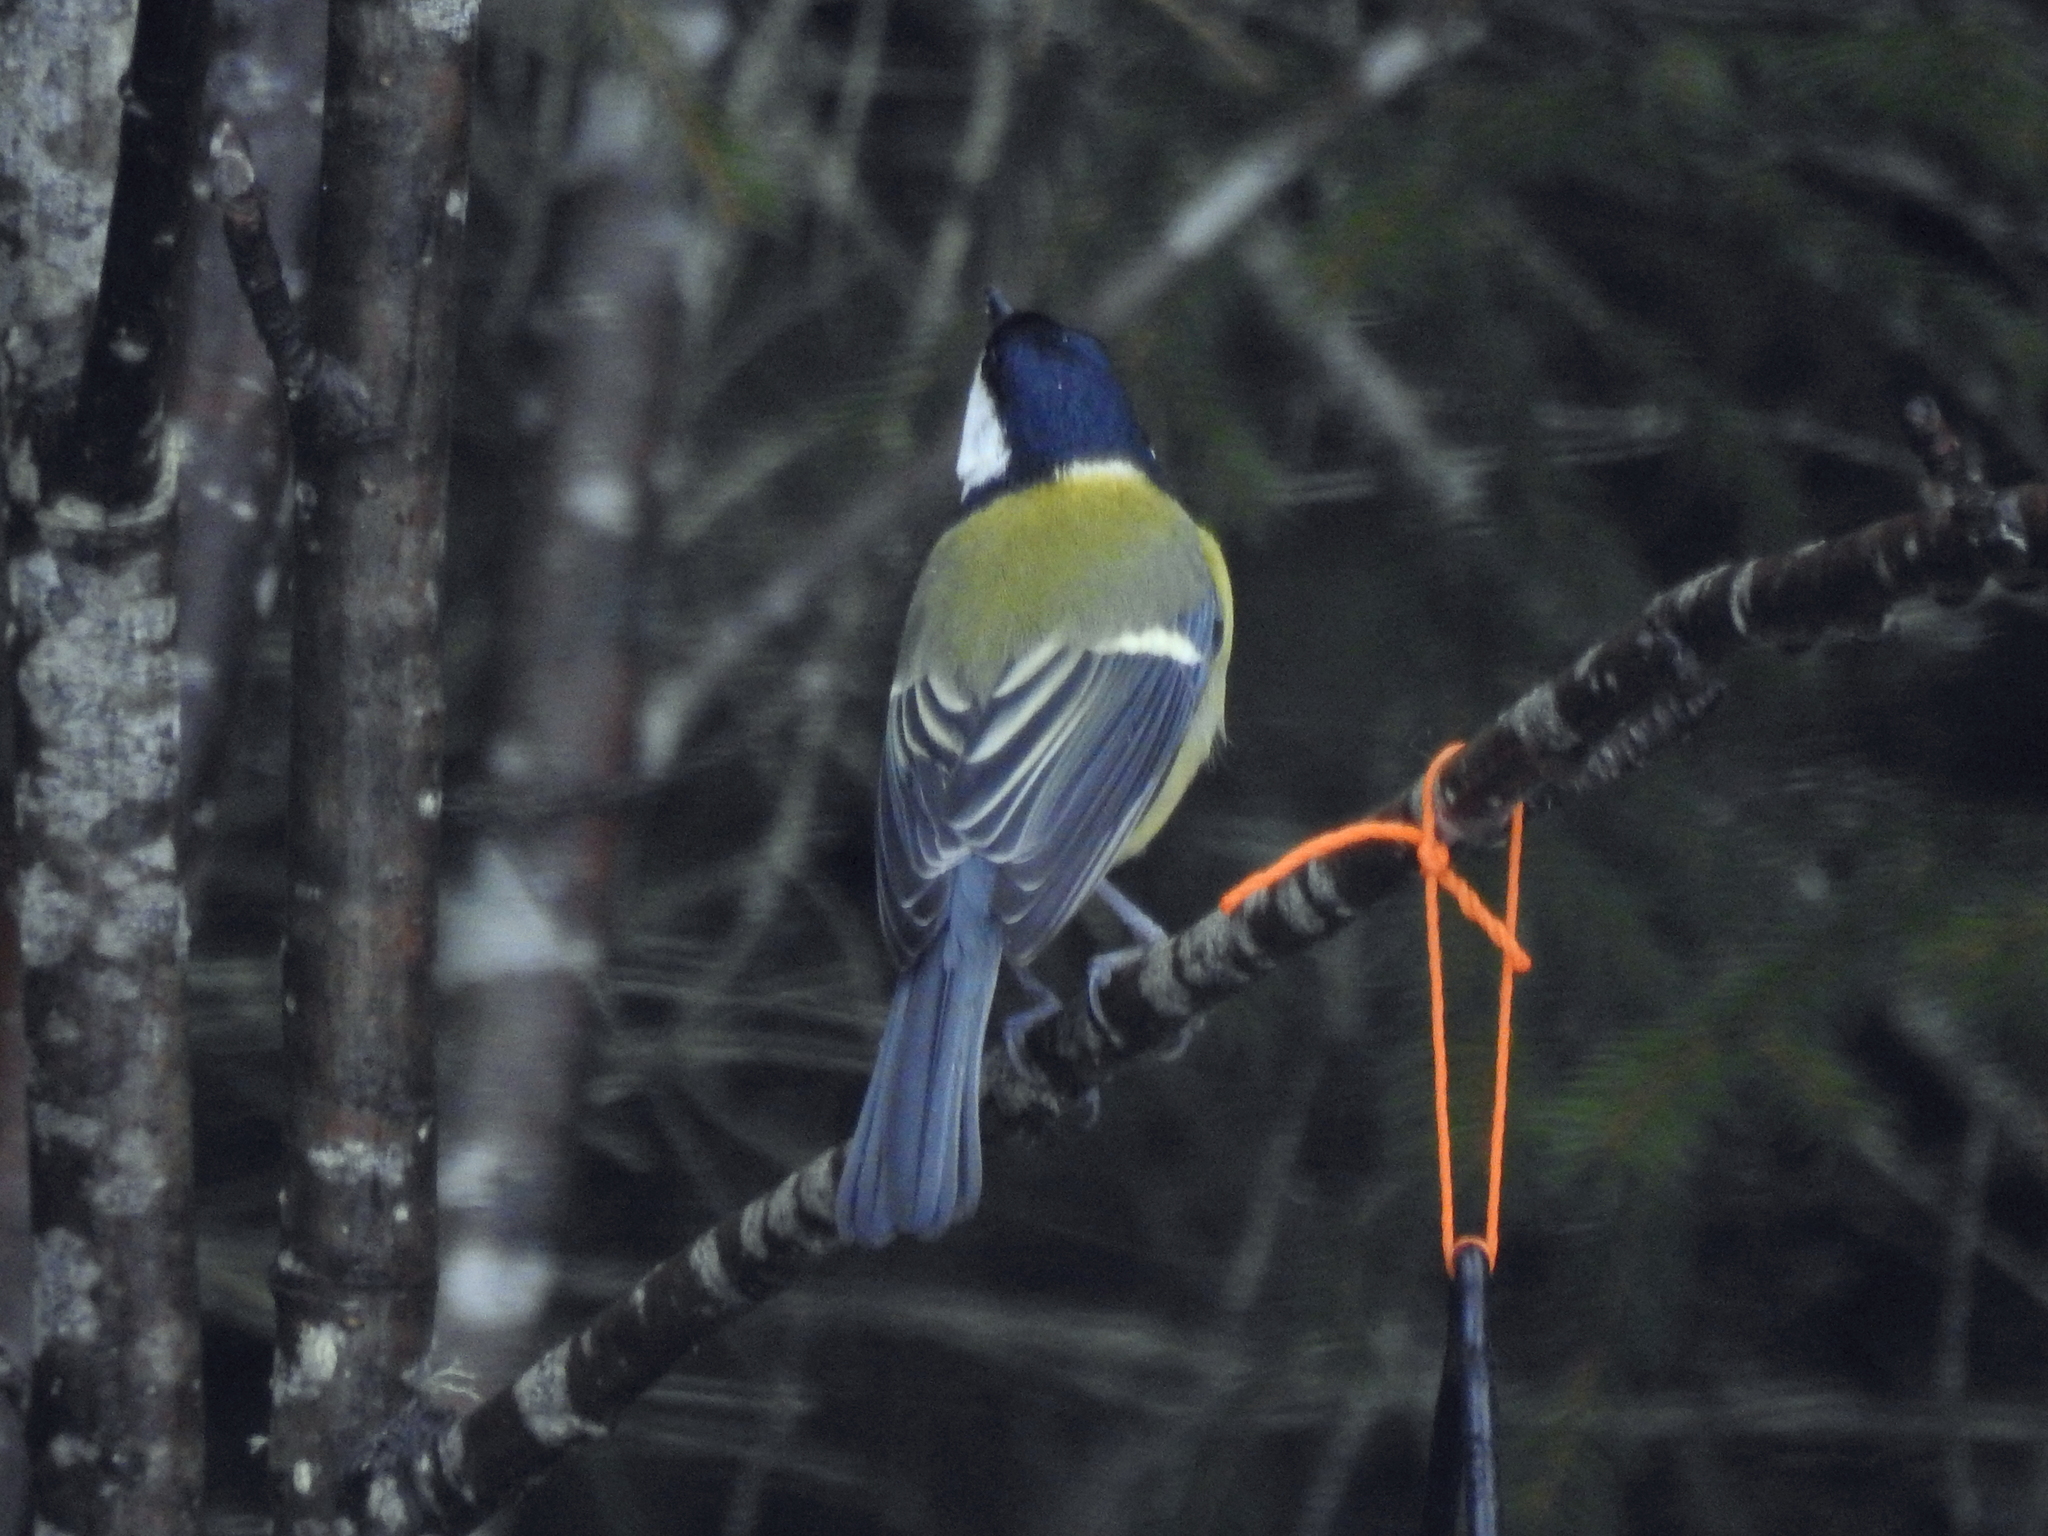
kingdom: Animalia
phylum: Chordata
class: Aves
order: Passeriformes
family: Paridae
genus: Parus
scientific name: Parus major
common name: Great tit
